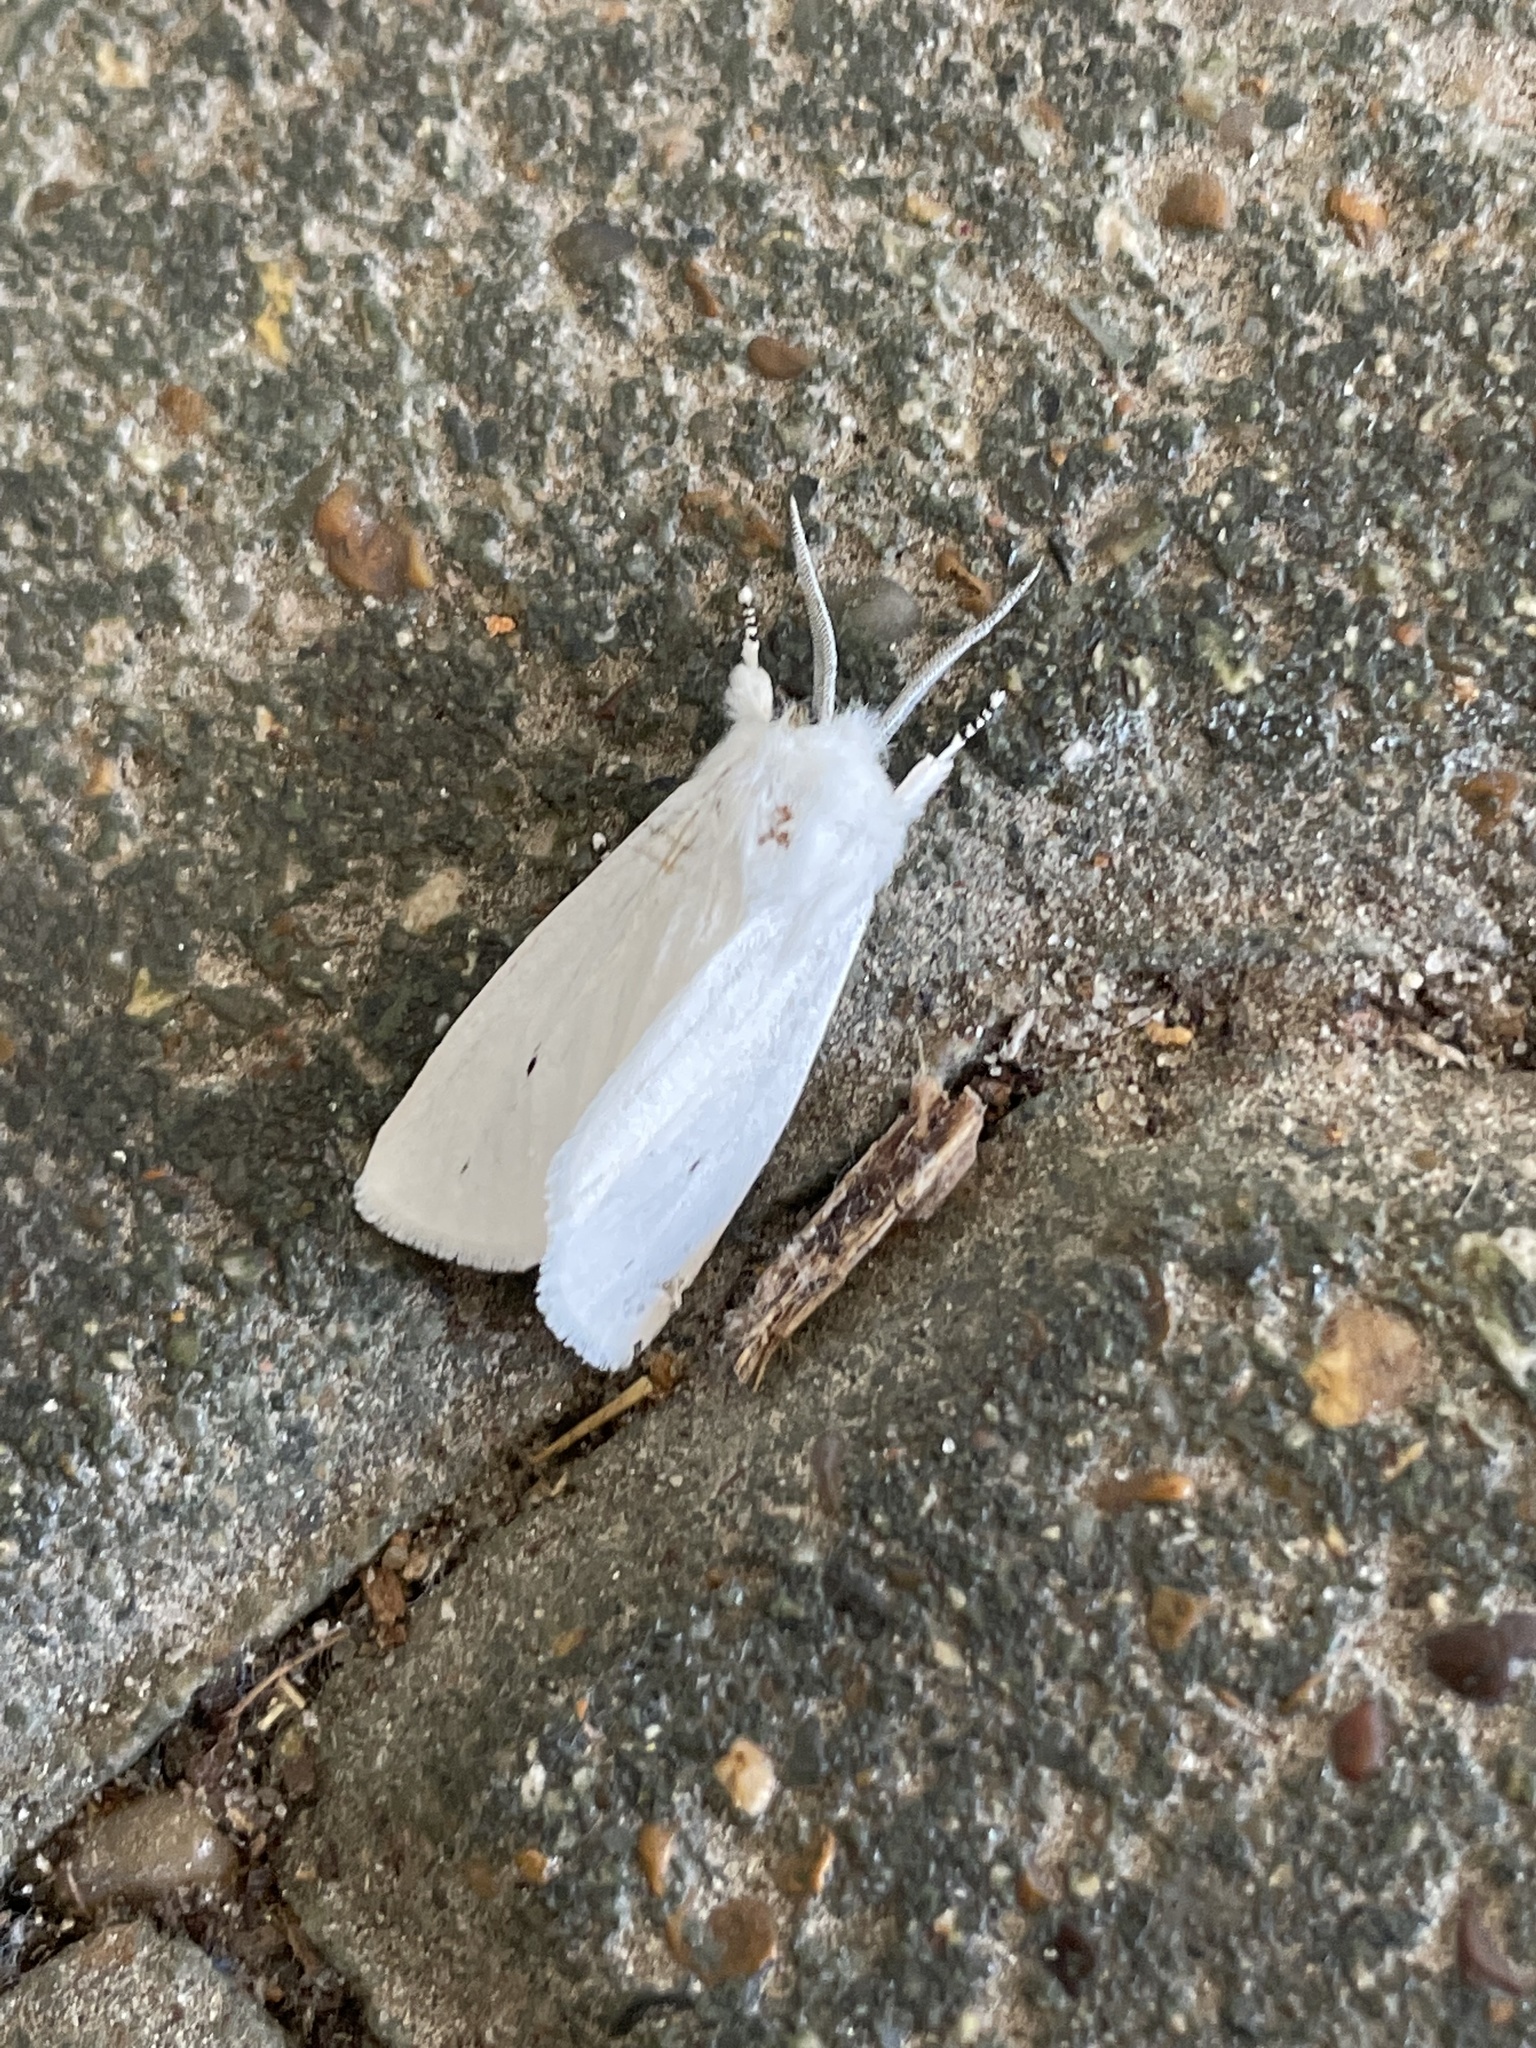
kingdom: Animalia
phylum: Arthropoda
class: Insecta
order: Lepidoptera
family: Erebidae
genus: Spilosoma
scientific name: Spilosoma virginica
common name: Virginia tiger moth
